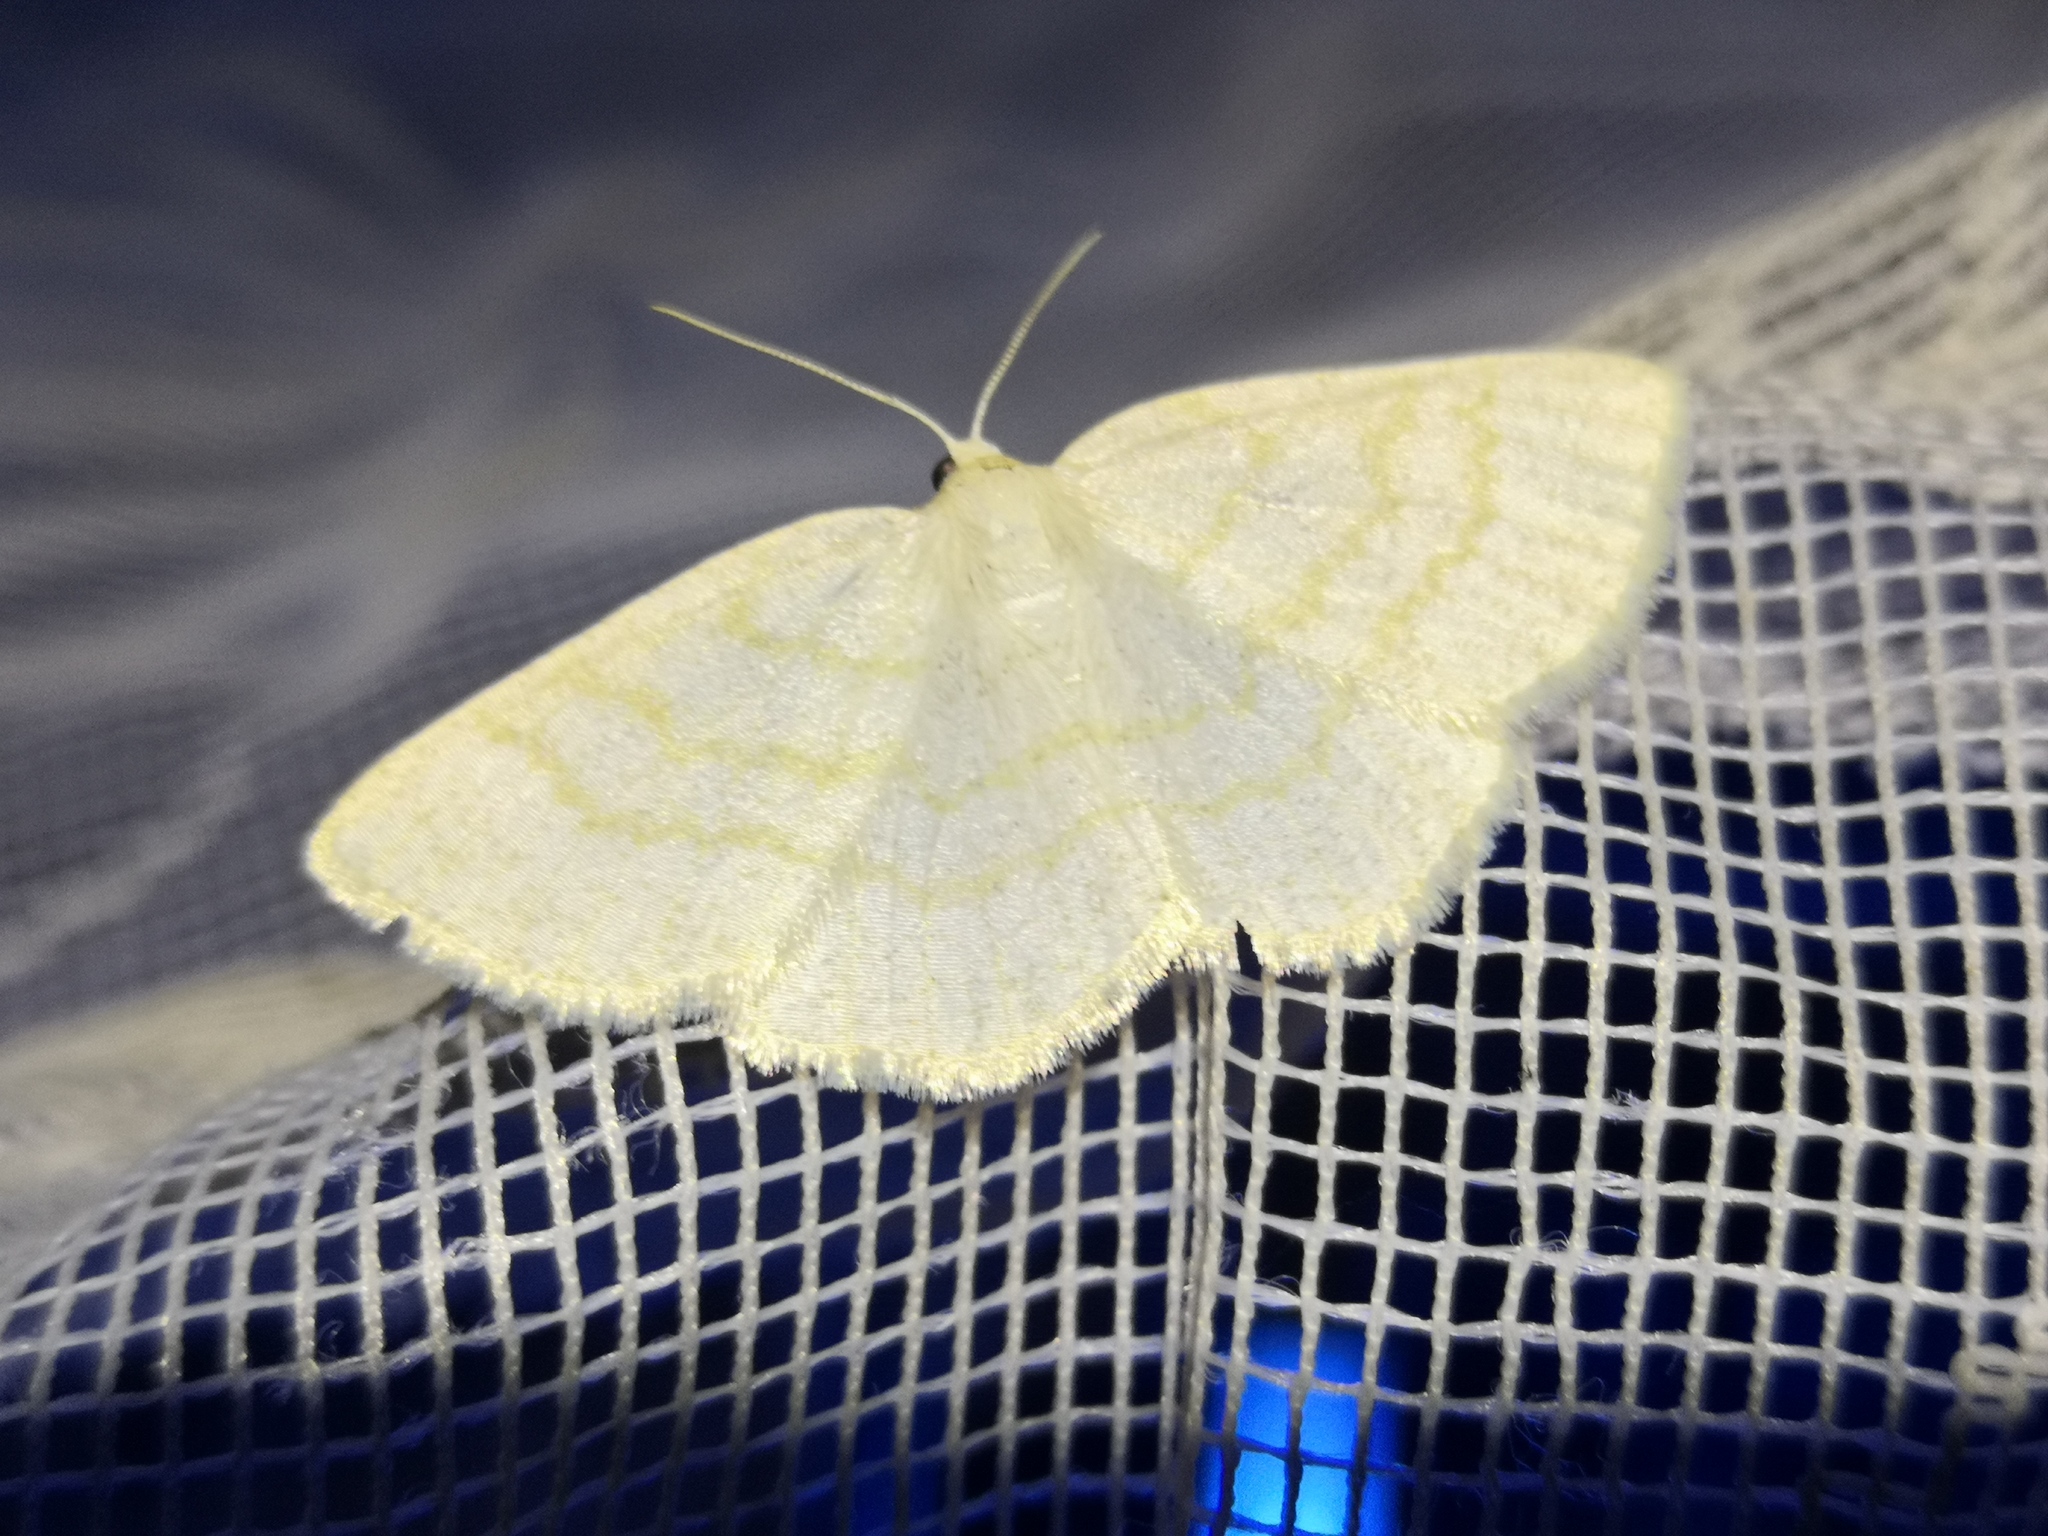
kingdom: Animalia
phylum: Arthropoda
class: Insecta
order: Lepidoptera
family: Geometridae
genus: Cabera
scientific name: Cabera exanthemata
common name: Common wave
